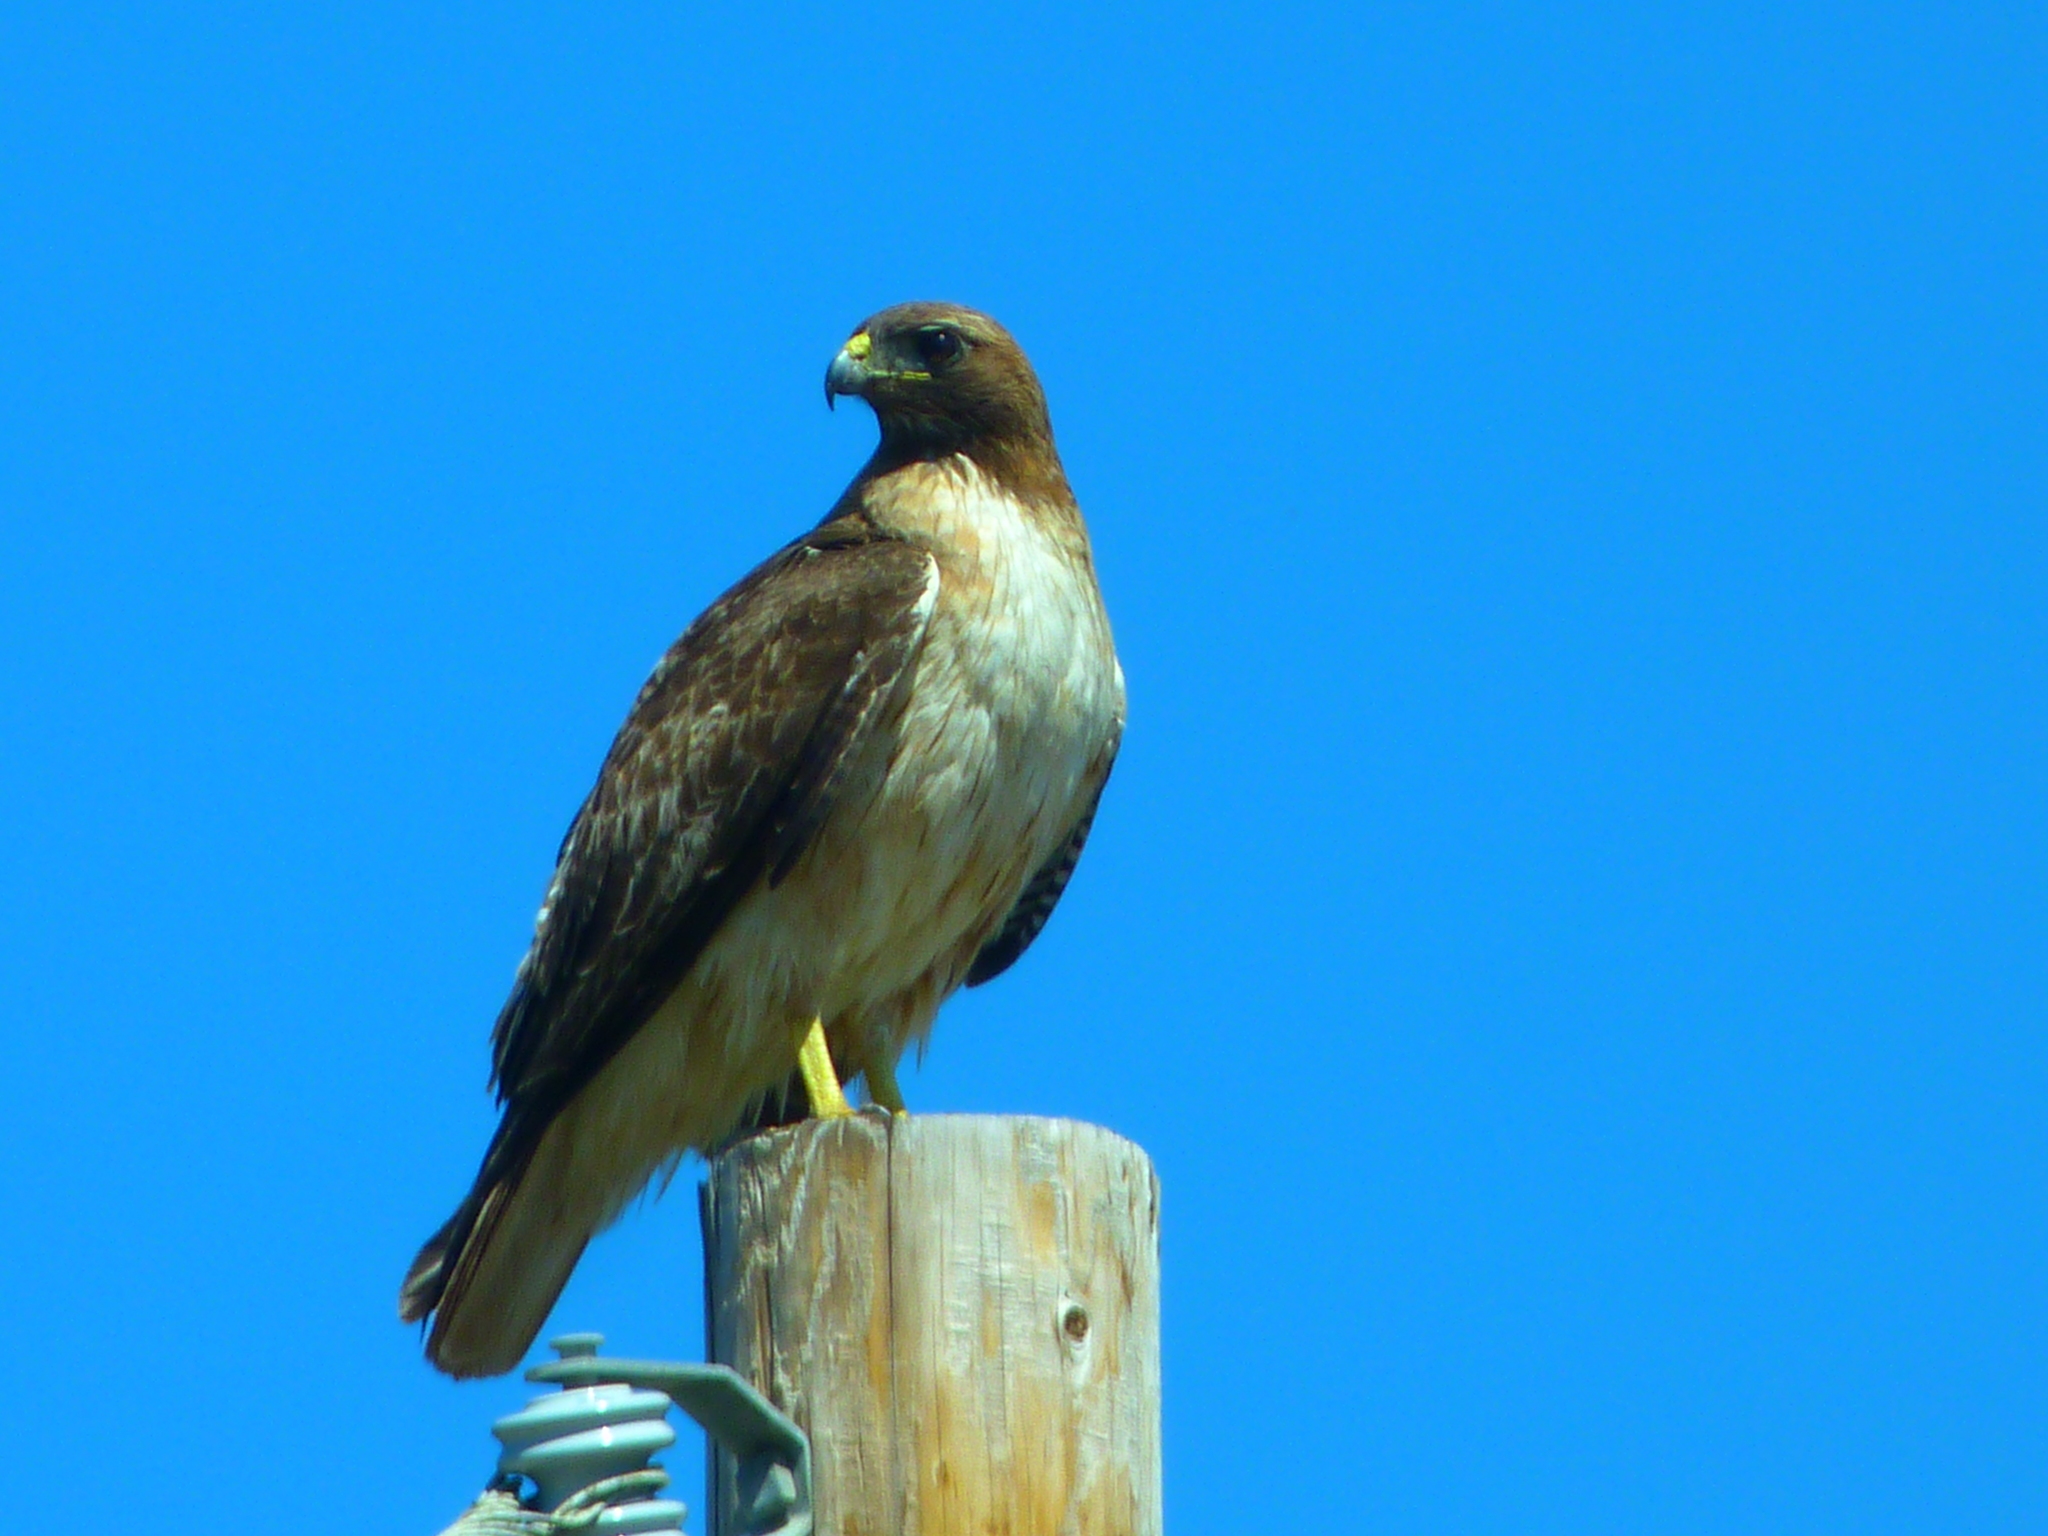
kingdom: Animalia
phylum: Chordata
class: Aves
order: Accipitriformes
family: Accipitridae
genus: Buteo
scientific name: Buteo jamaicensis
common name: Red-tailed hawk
